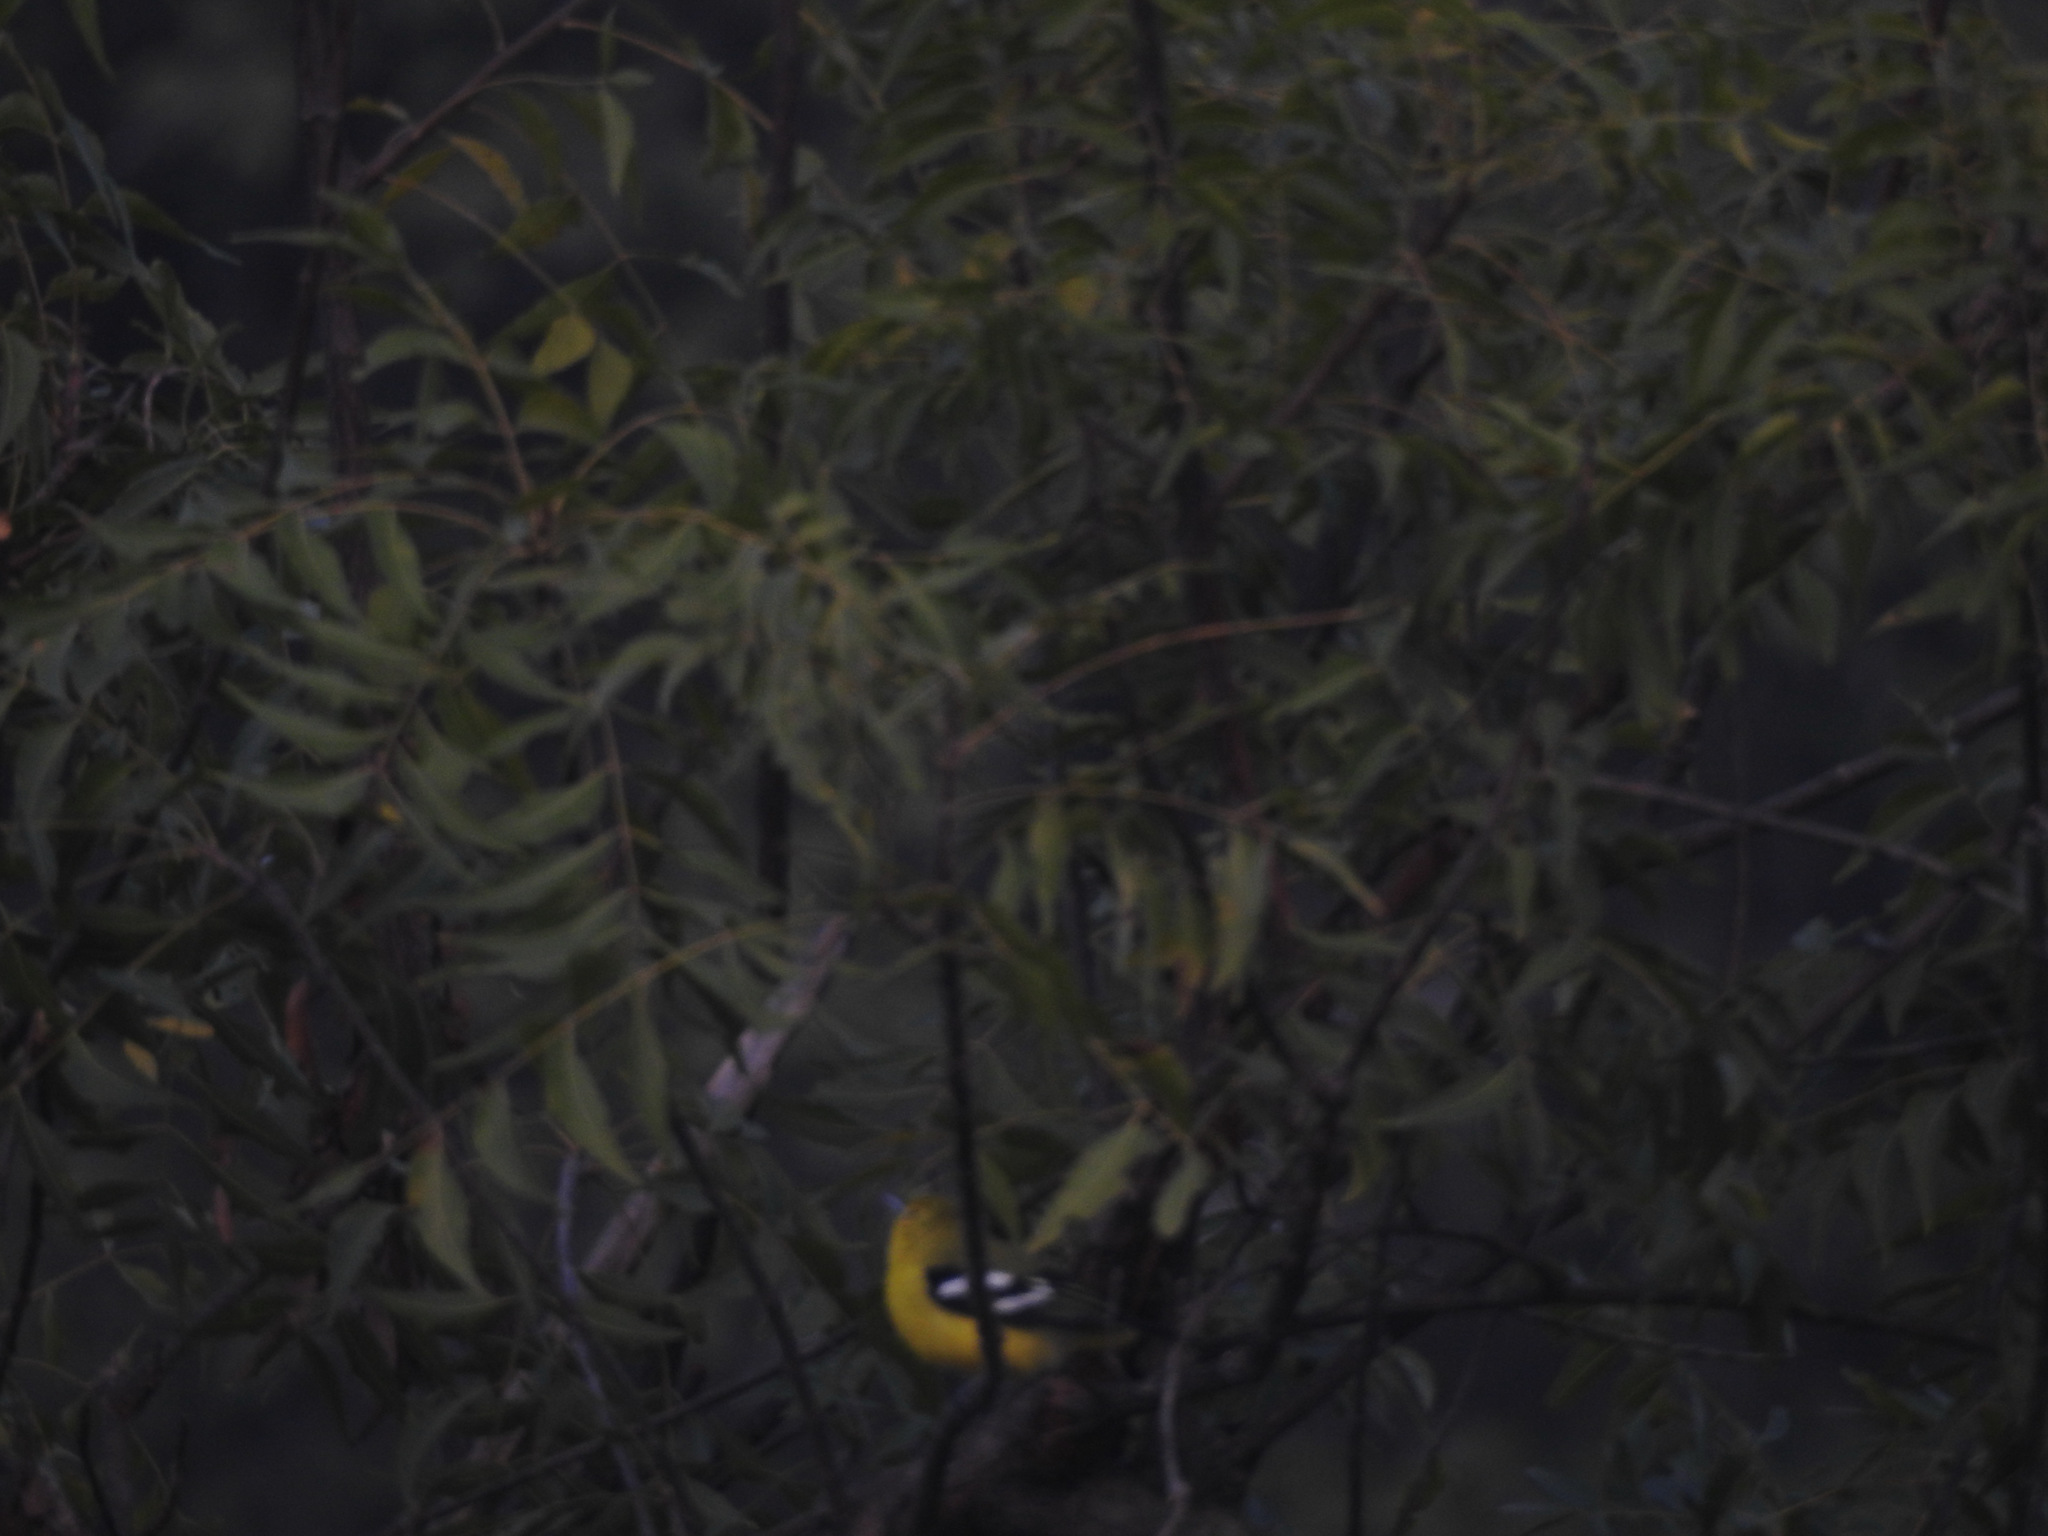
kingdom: Animalia
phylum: Chordata
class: Aves
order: Passeriformes
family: Aegithinidae
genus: Aegithina
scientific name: Aegithina tiphia
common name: Common iora
